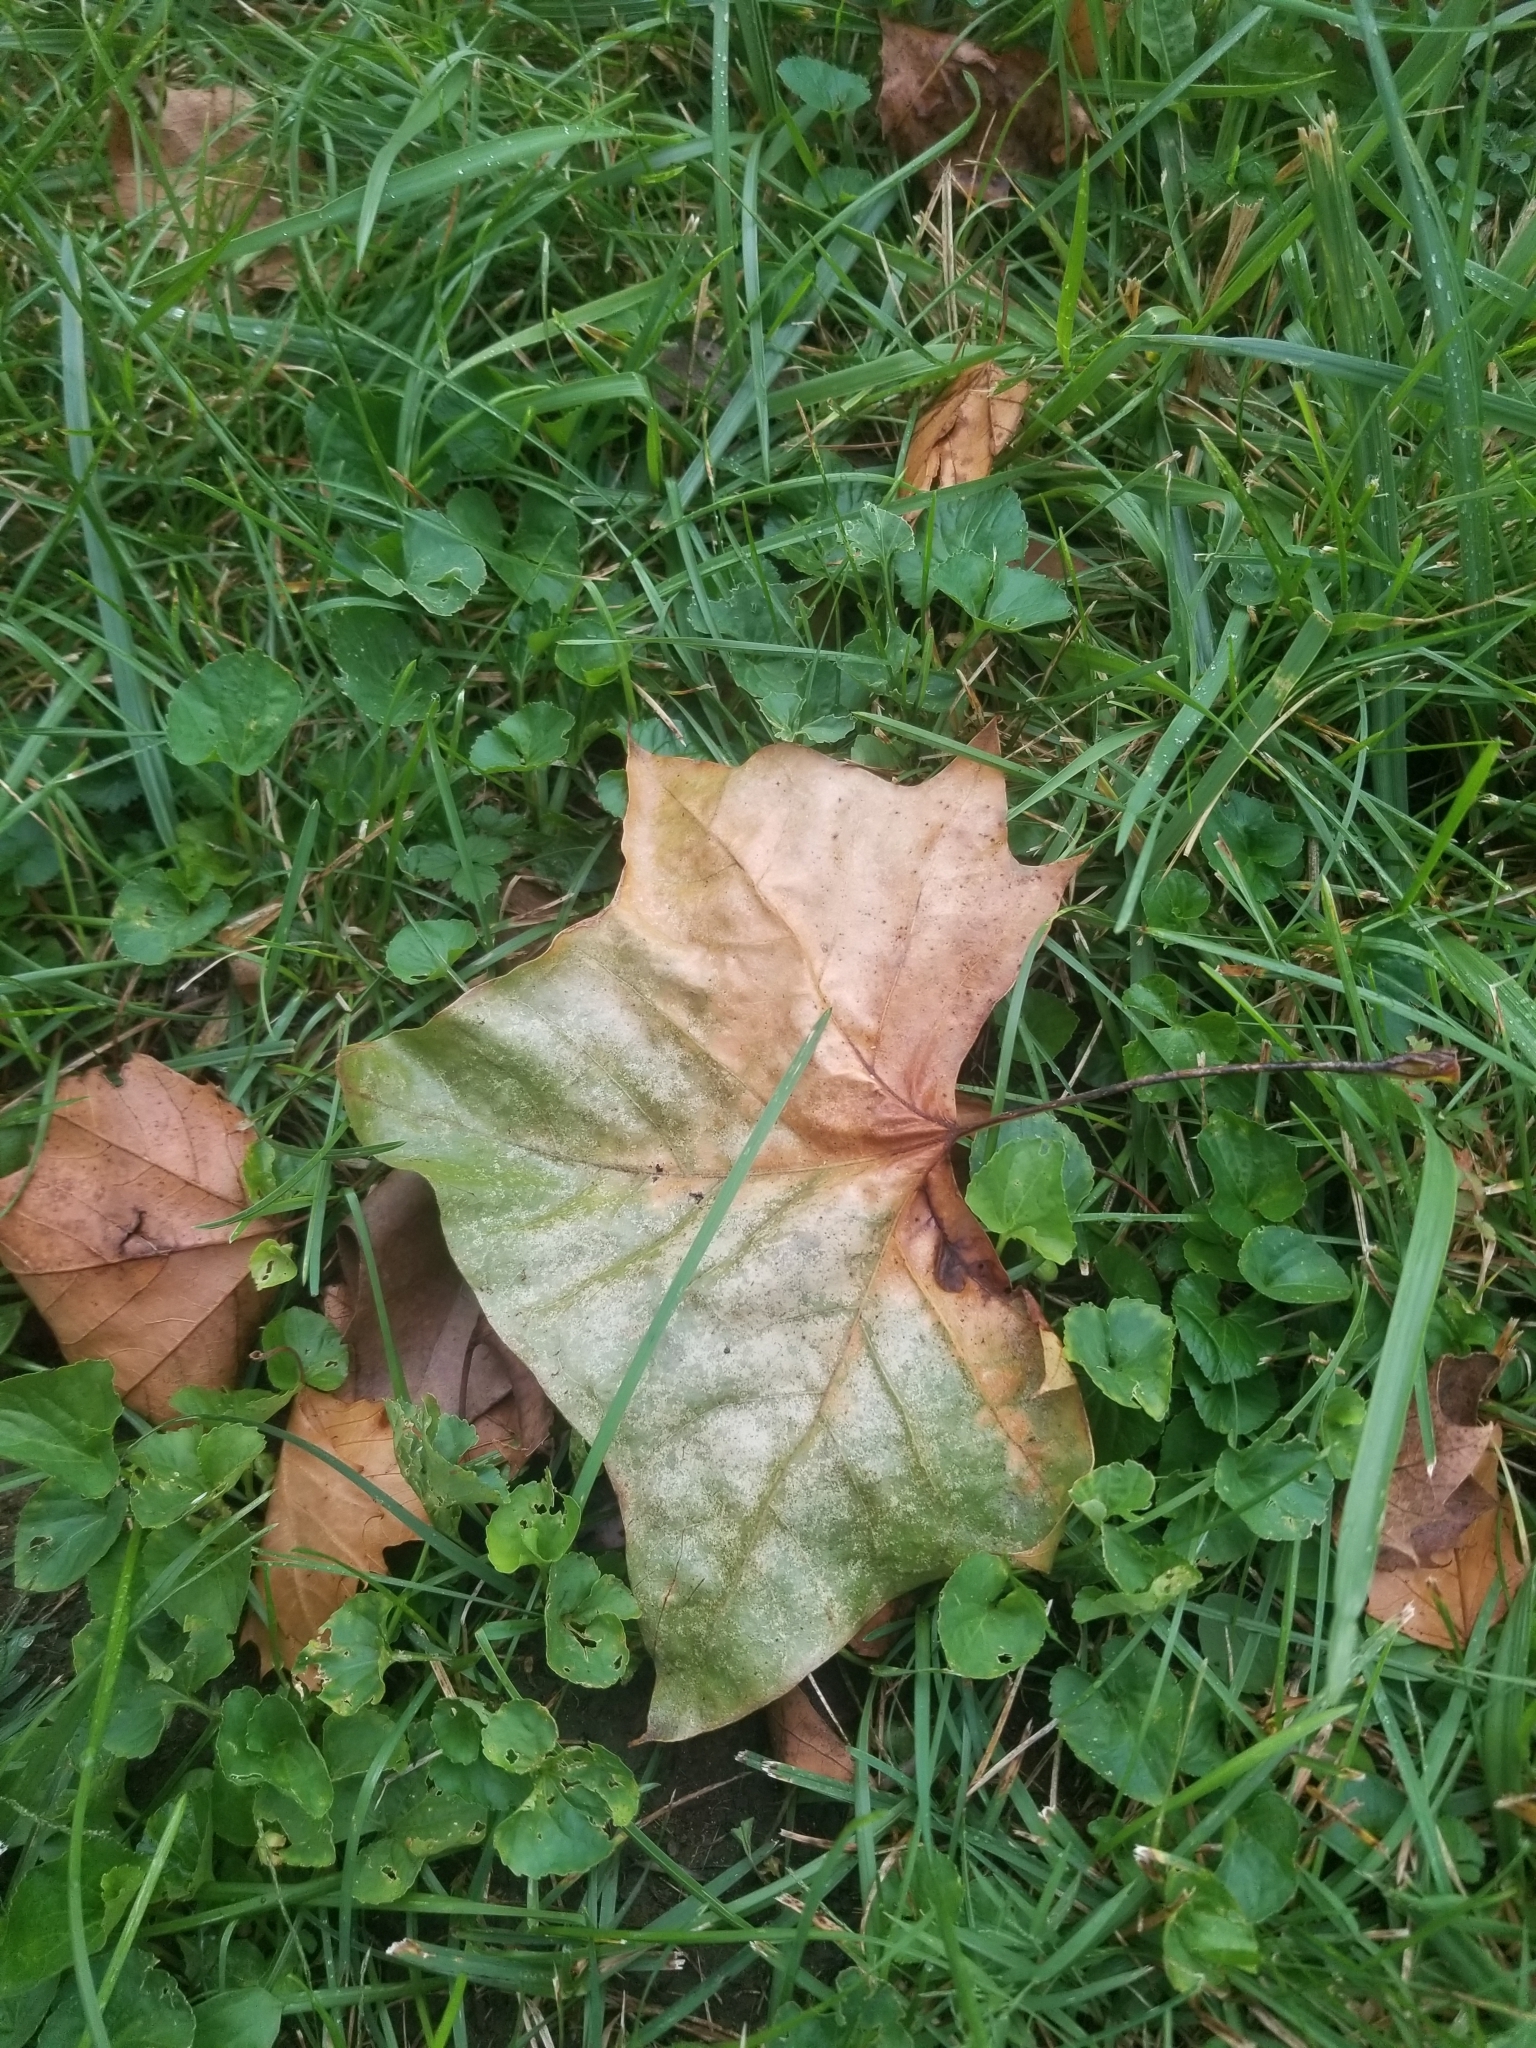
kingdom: Plantae
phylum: Tracheophyta
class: Magnoliopsida
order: Proteales
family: Platanaceae
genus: Platanus
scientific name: Platanus occidentalis
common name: American sycamore
